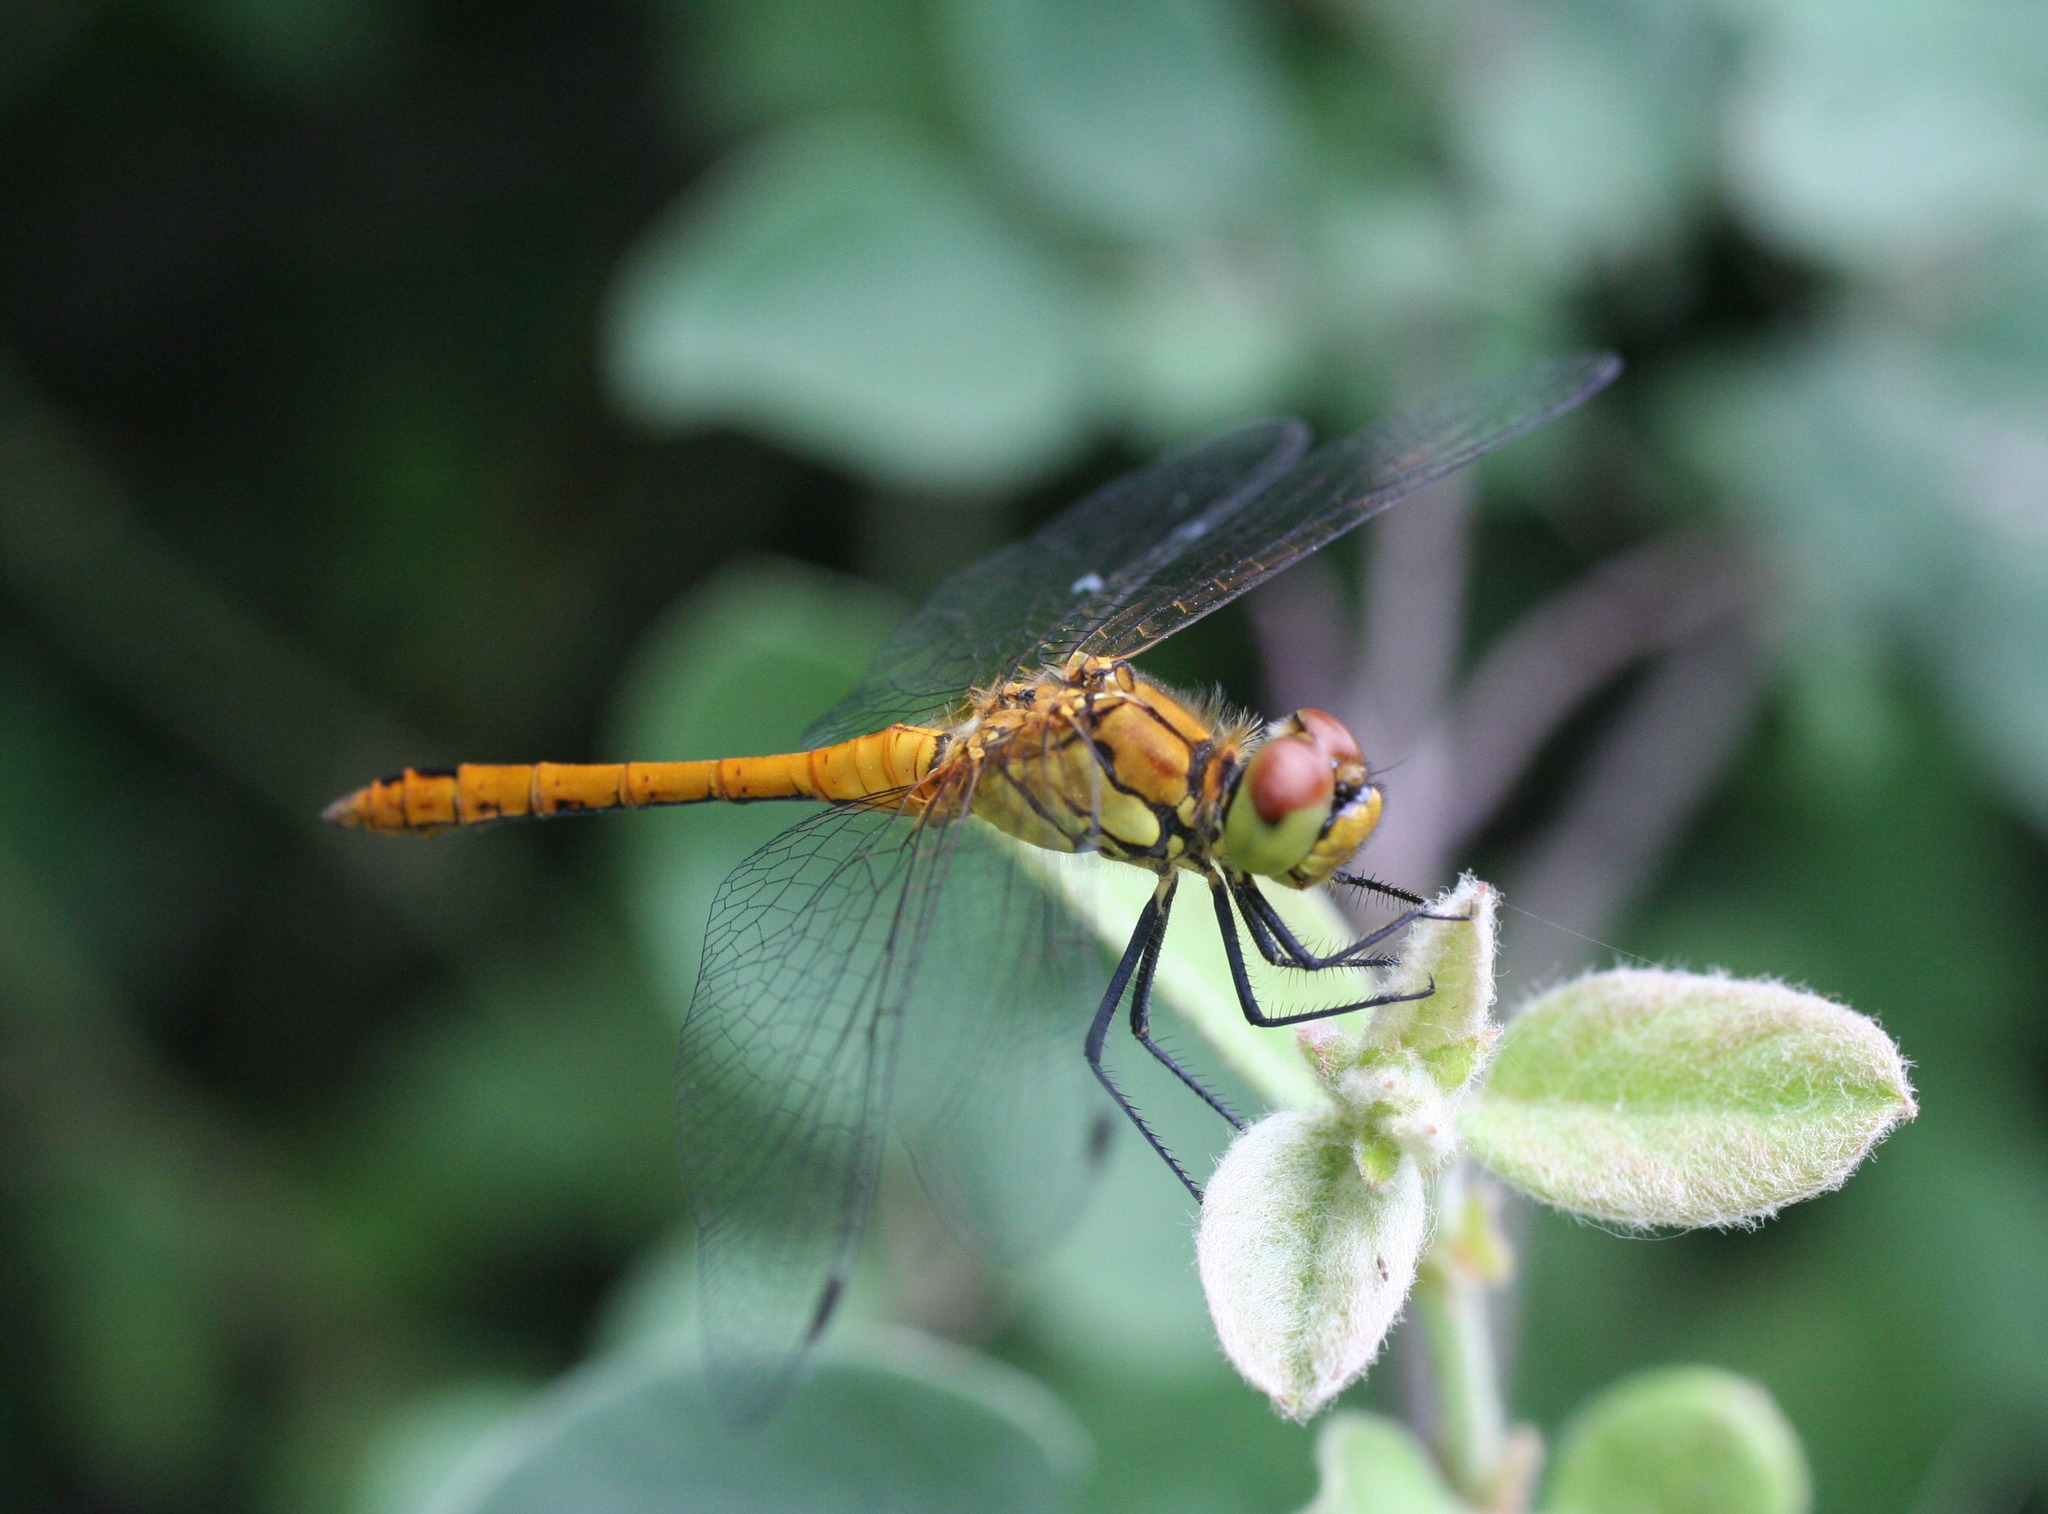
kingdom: Animalia
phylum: Arthropoda
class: Insecta
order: Odonata
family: Libellulidae
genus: Sympetrum
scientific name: Sympetrum sanguineum
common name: Ruddy darter
